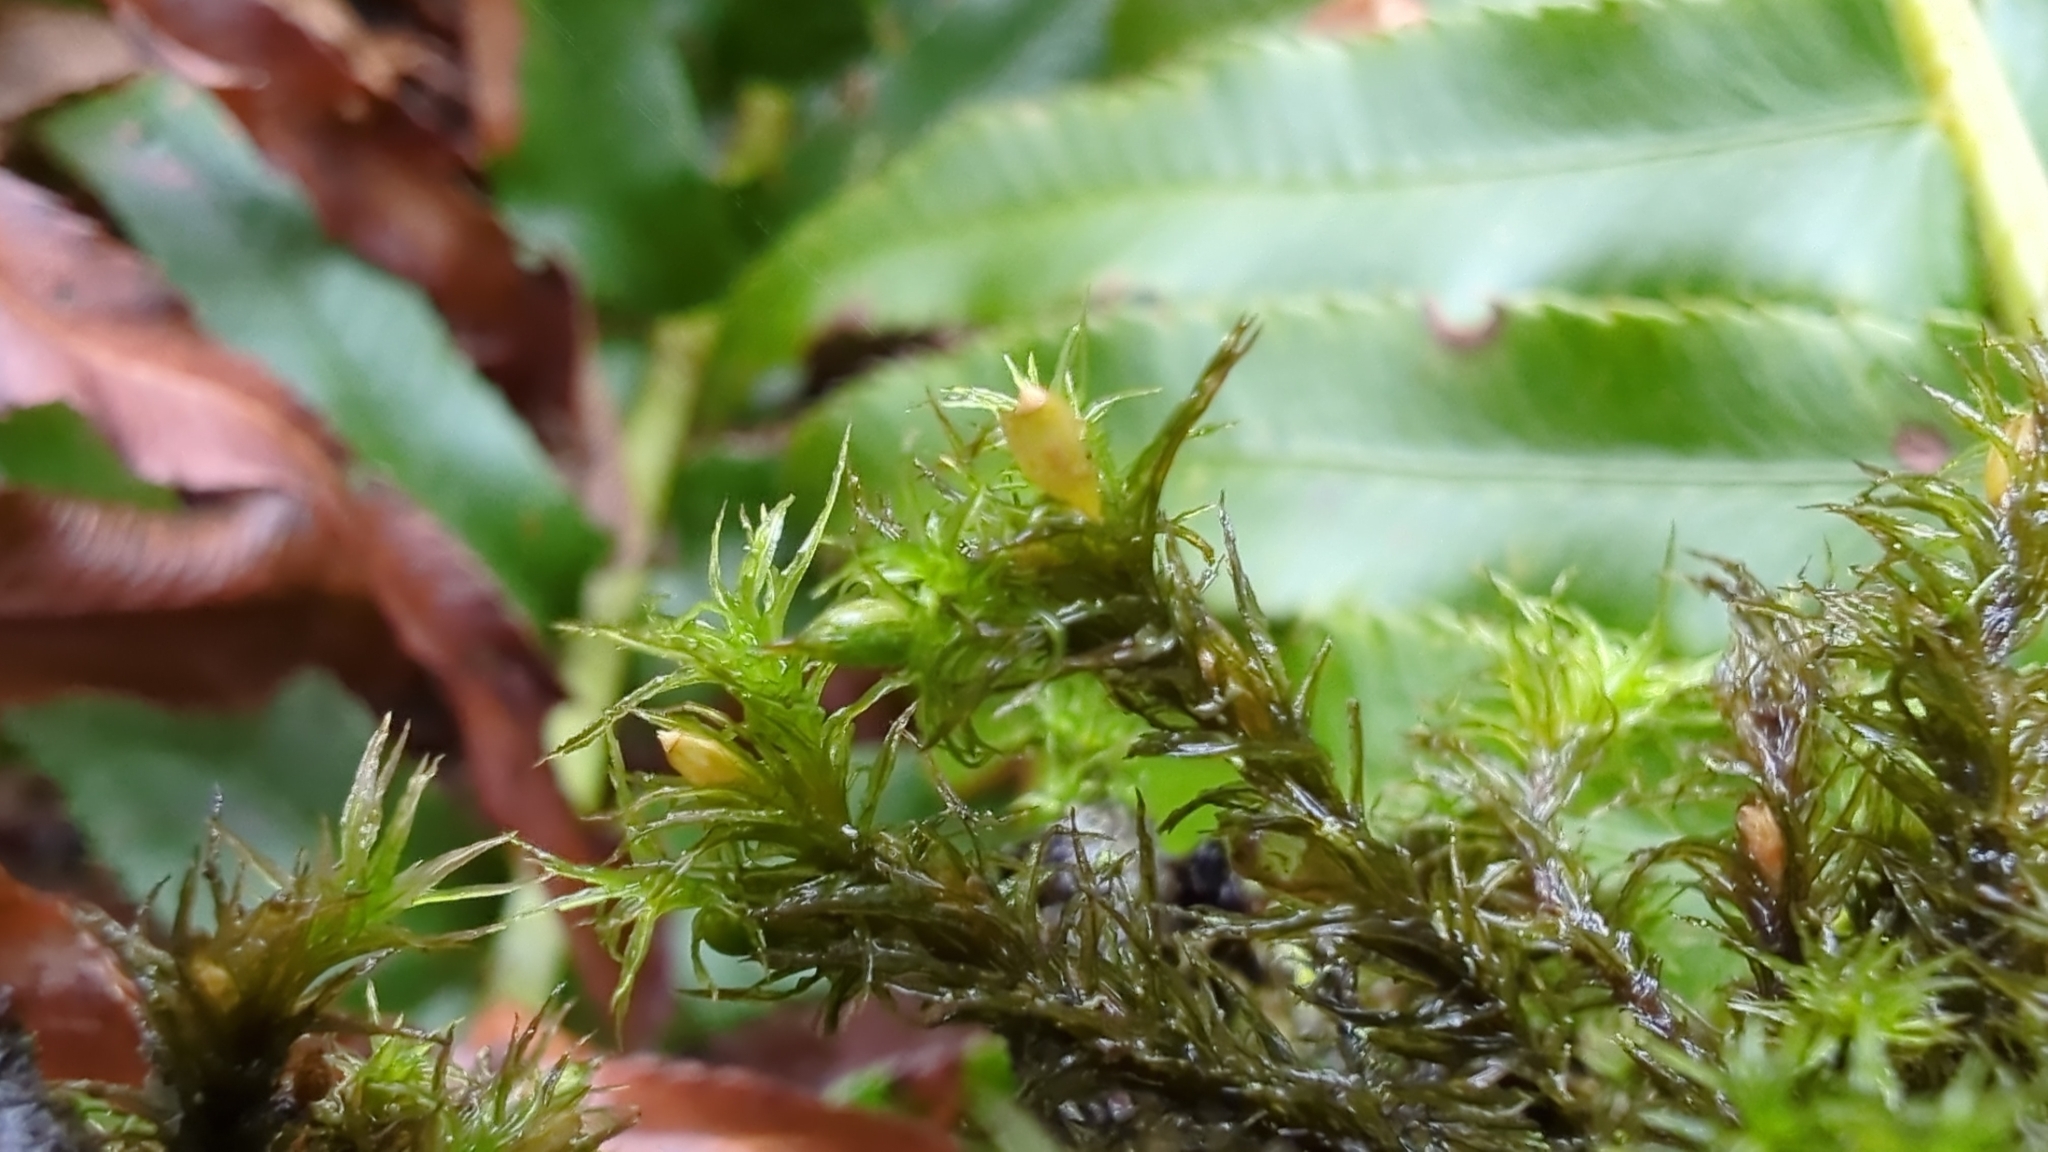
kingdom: Plantae
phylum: Bryophyta
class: Bryopsida
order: Orthotrichales
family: Orthotrichaceae
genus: Pulvigera
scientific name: Pulvigera pringlei
